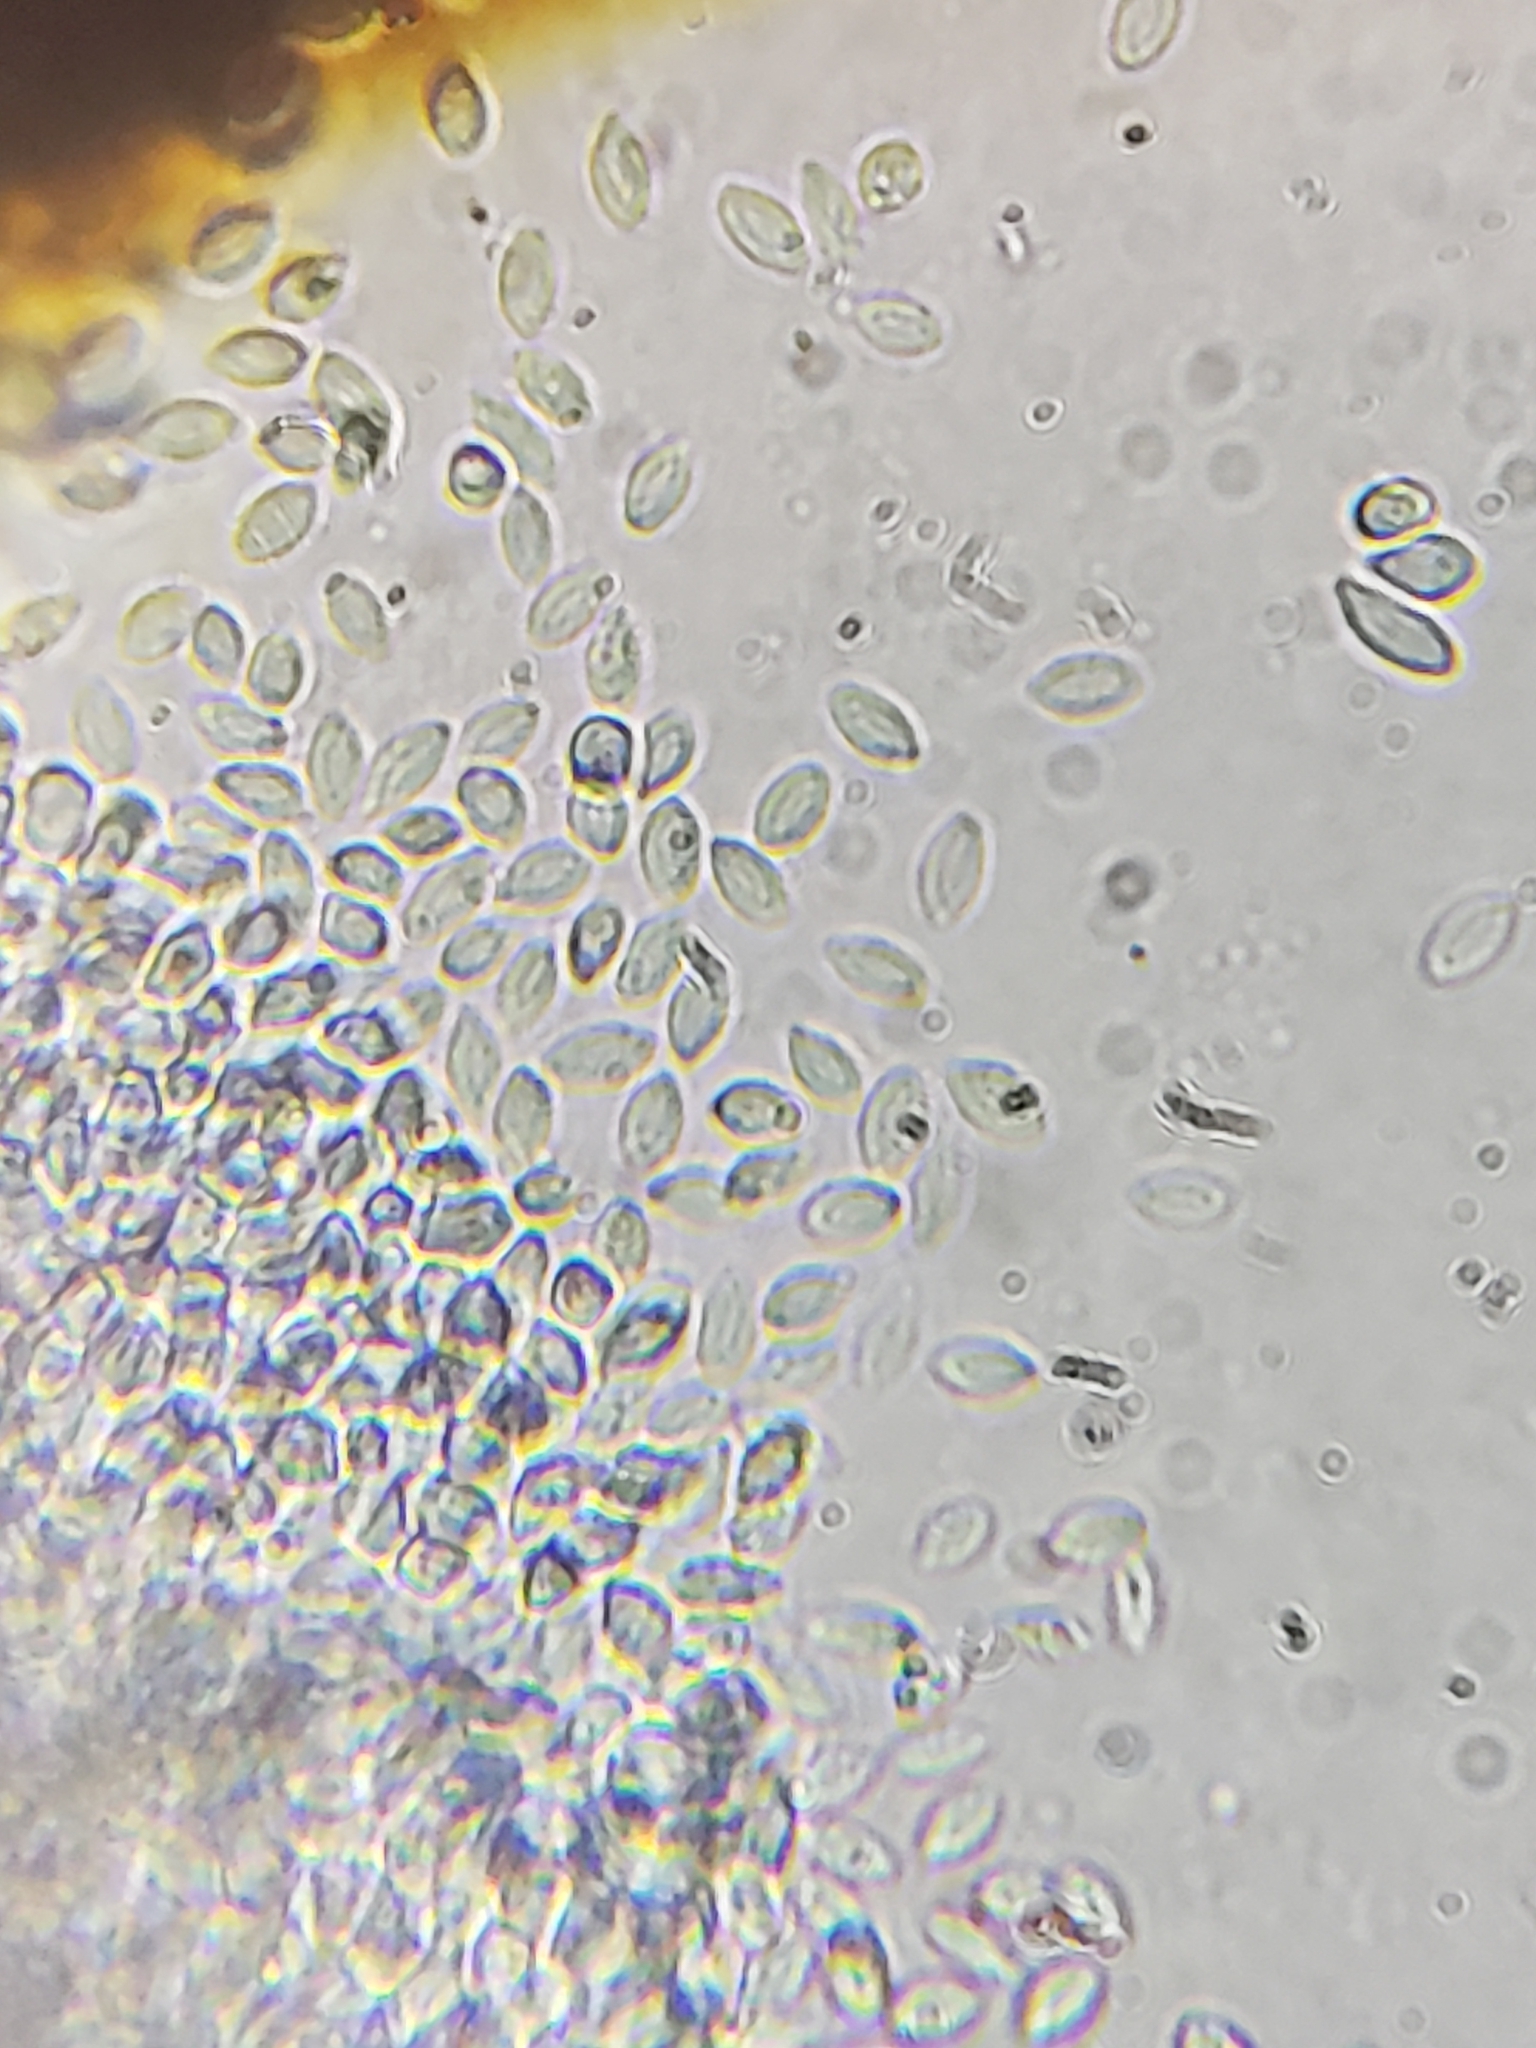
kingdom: Fungi
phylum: Ascomycota
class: Sordariomycetes
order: Hypocreales
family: Nectriaceae
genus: Mariannaea
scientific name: Mariannaea elegans
